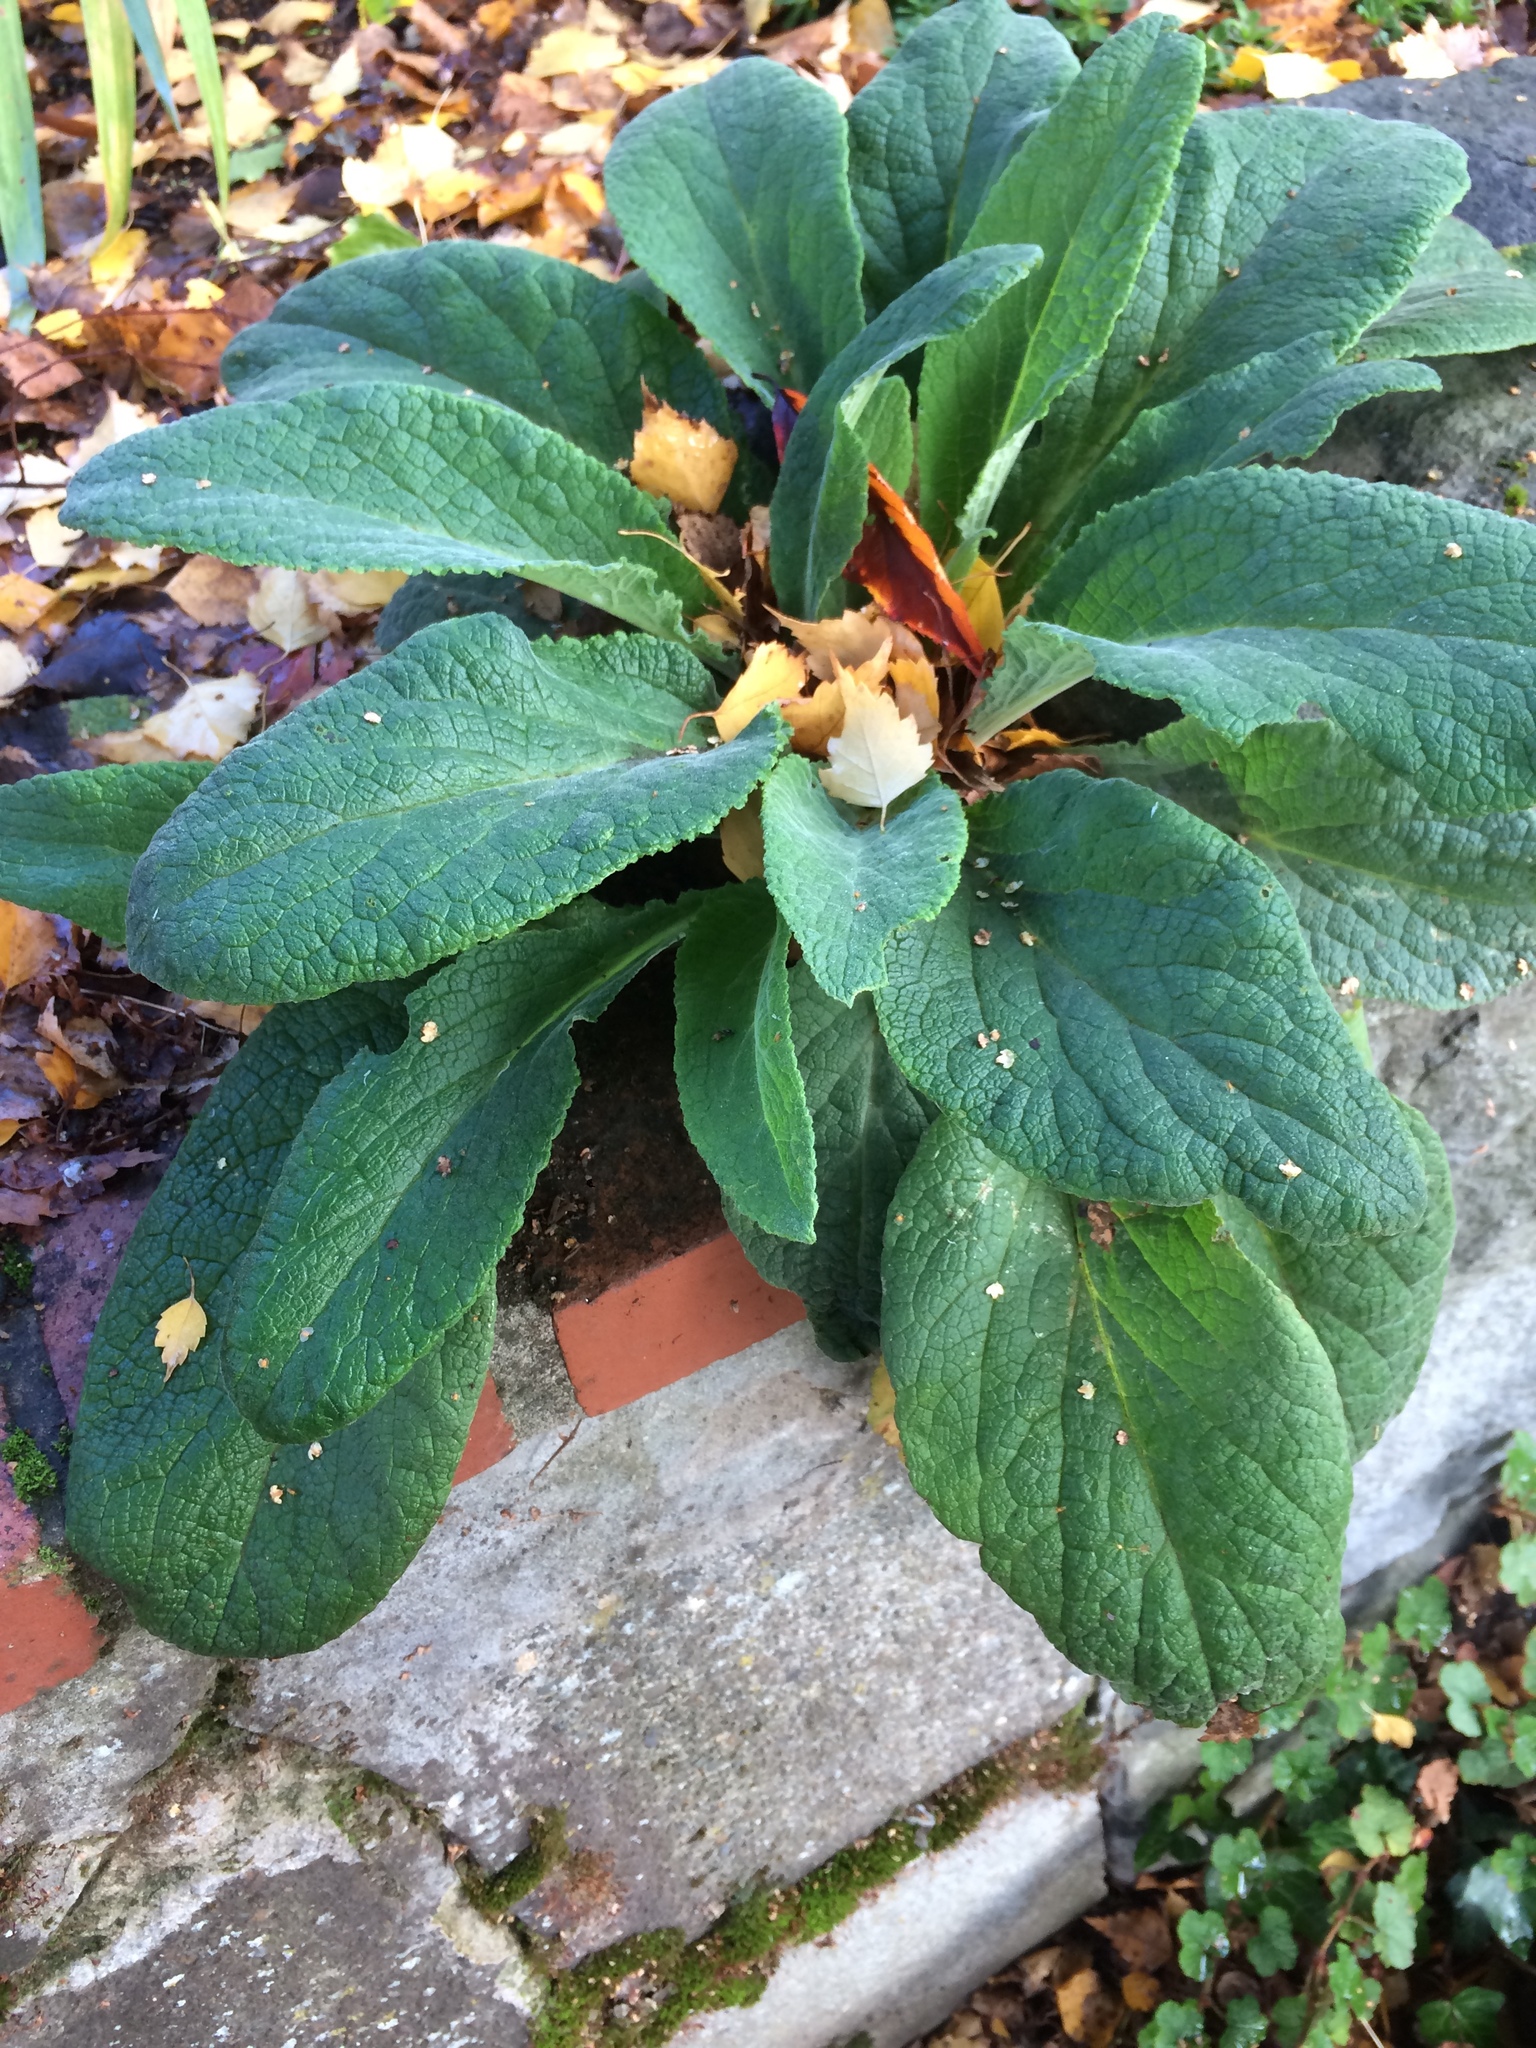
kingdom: Plantae
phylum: Tracheophyta
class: Magnoliopsida
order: Lamiales
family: Plantaginaceae
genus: Digitalis
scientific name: Digitalis purpurea
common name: Foxglove
